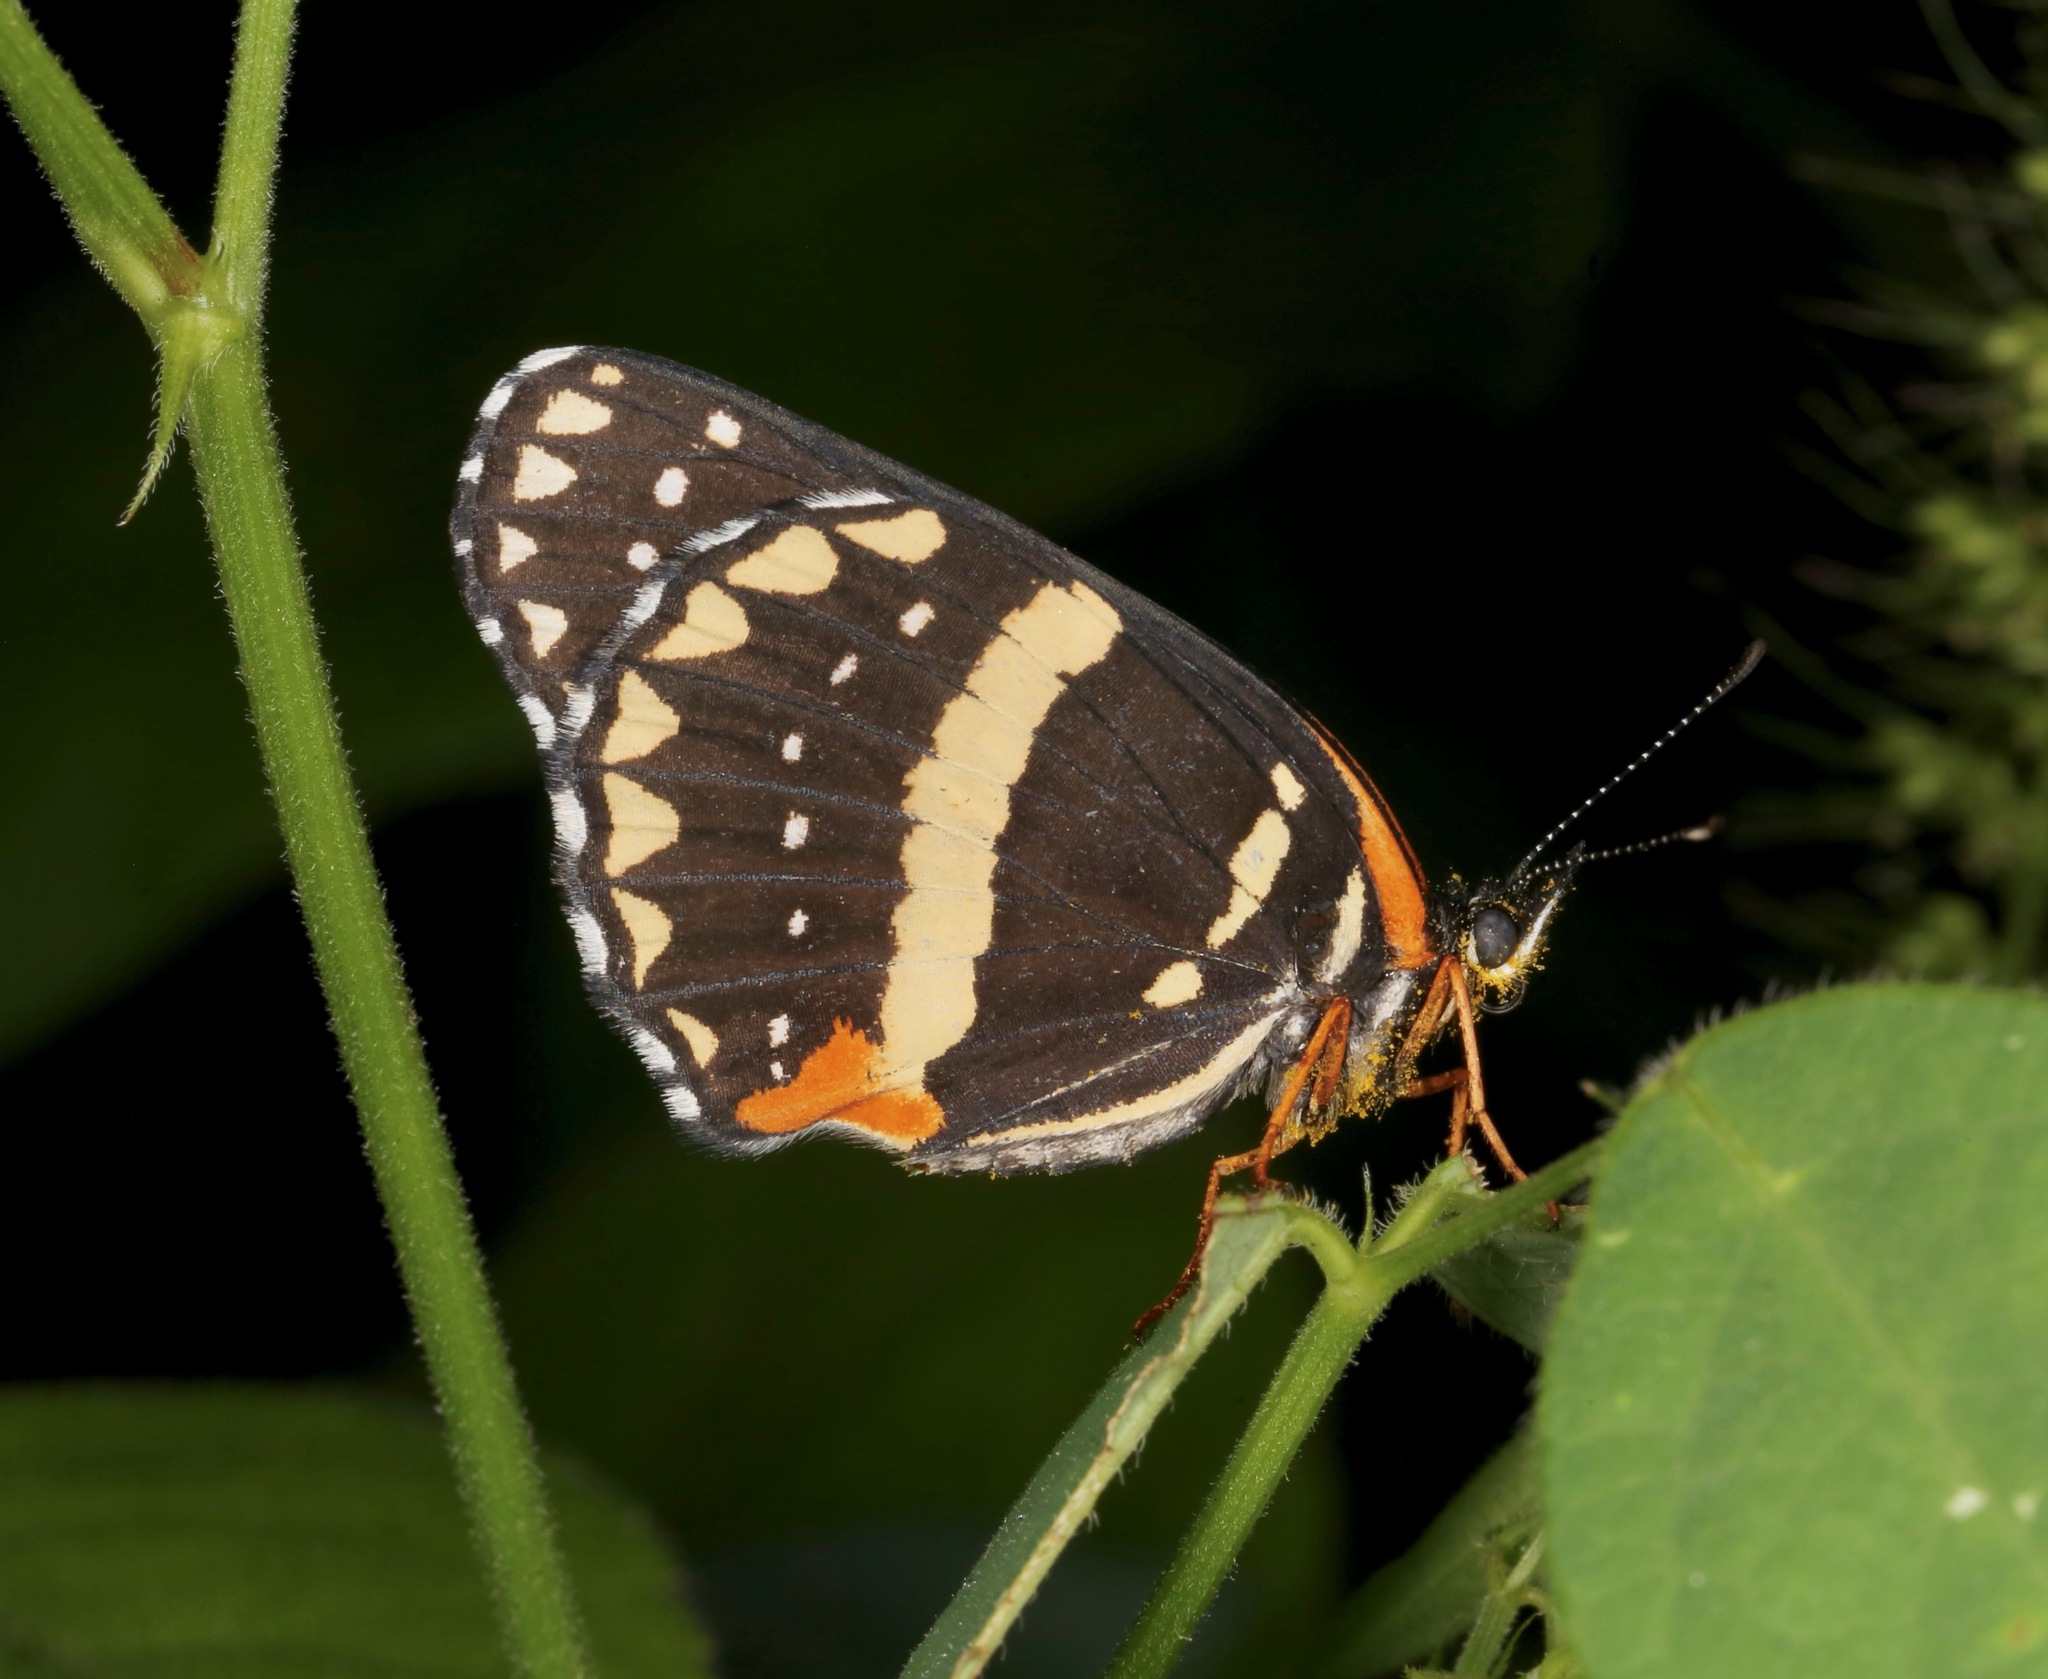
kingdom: Animalia
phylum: Arthropoda
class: Insecta
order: Lepidoptera
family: Nymphalidae
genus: Chlosyne
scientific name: Chlosyne lacinia
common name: Bordered patch
